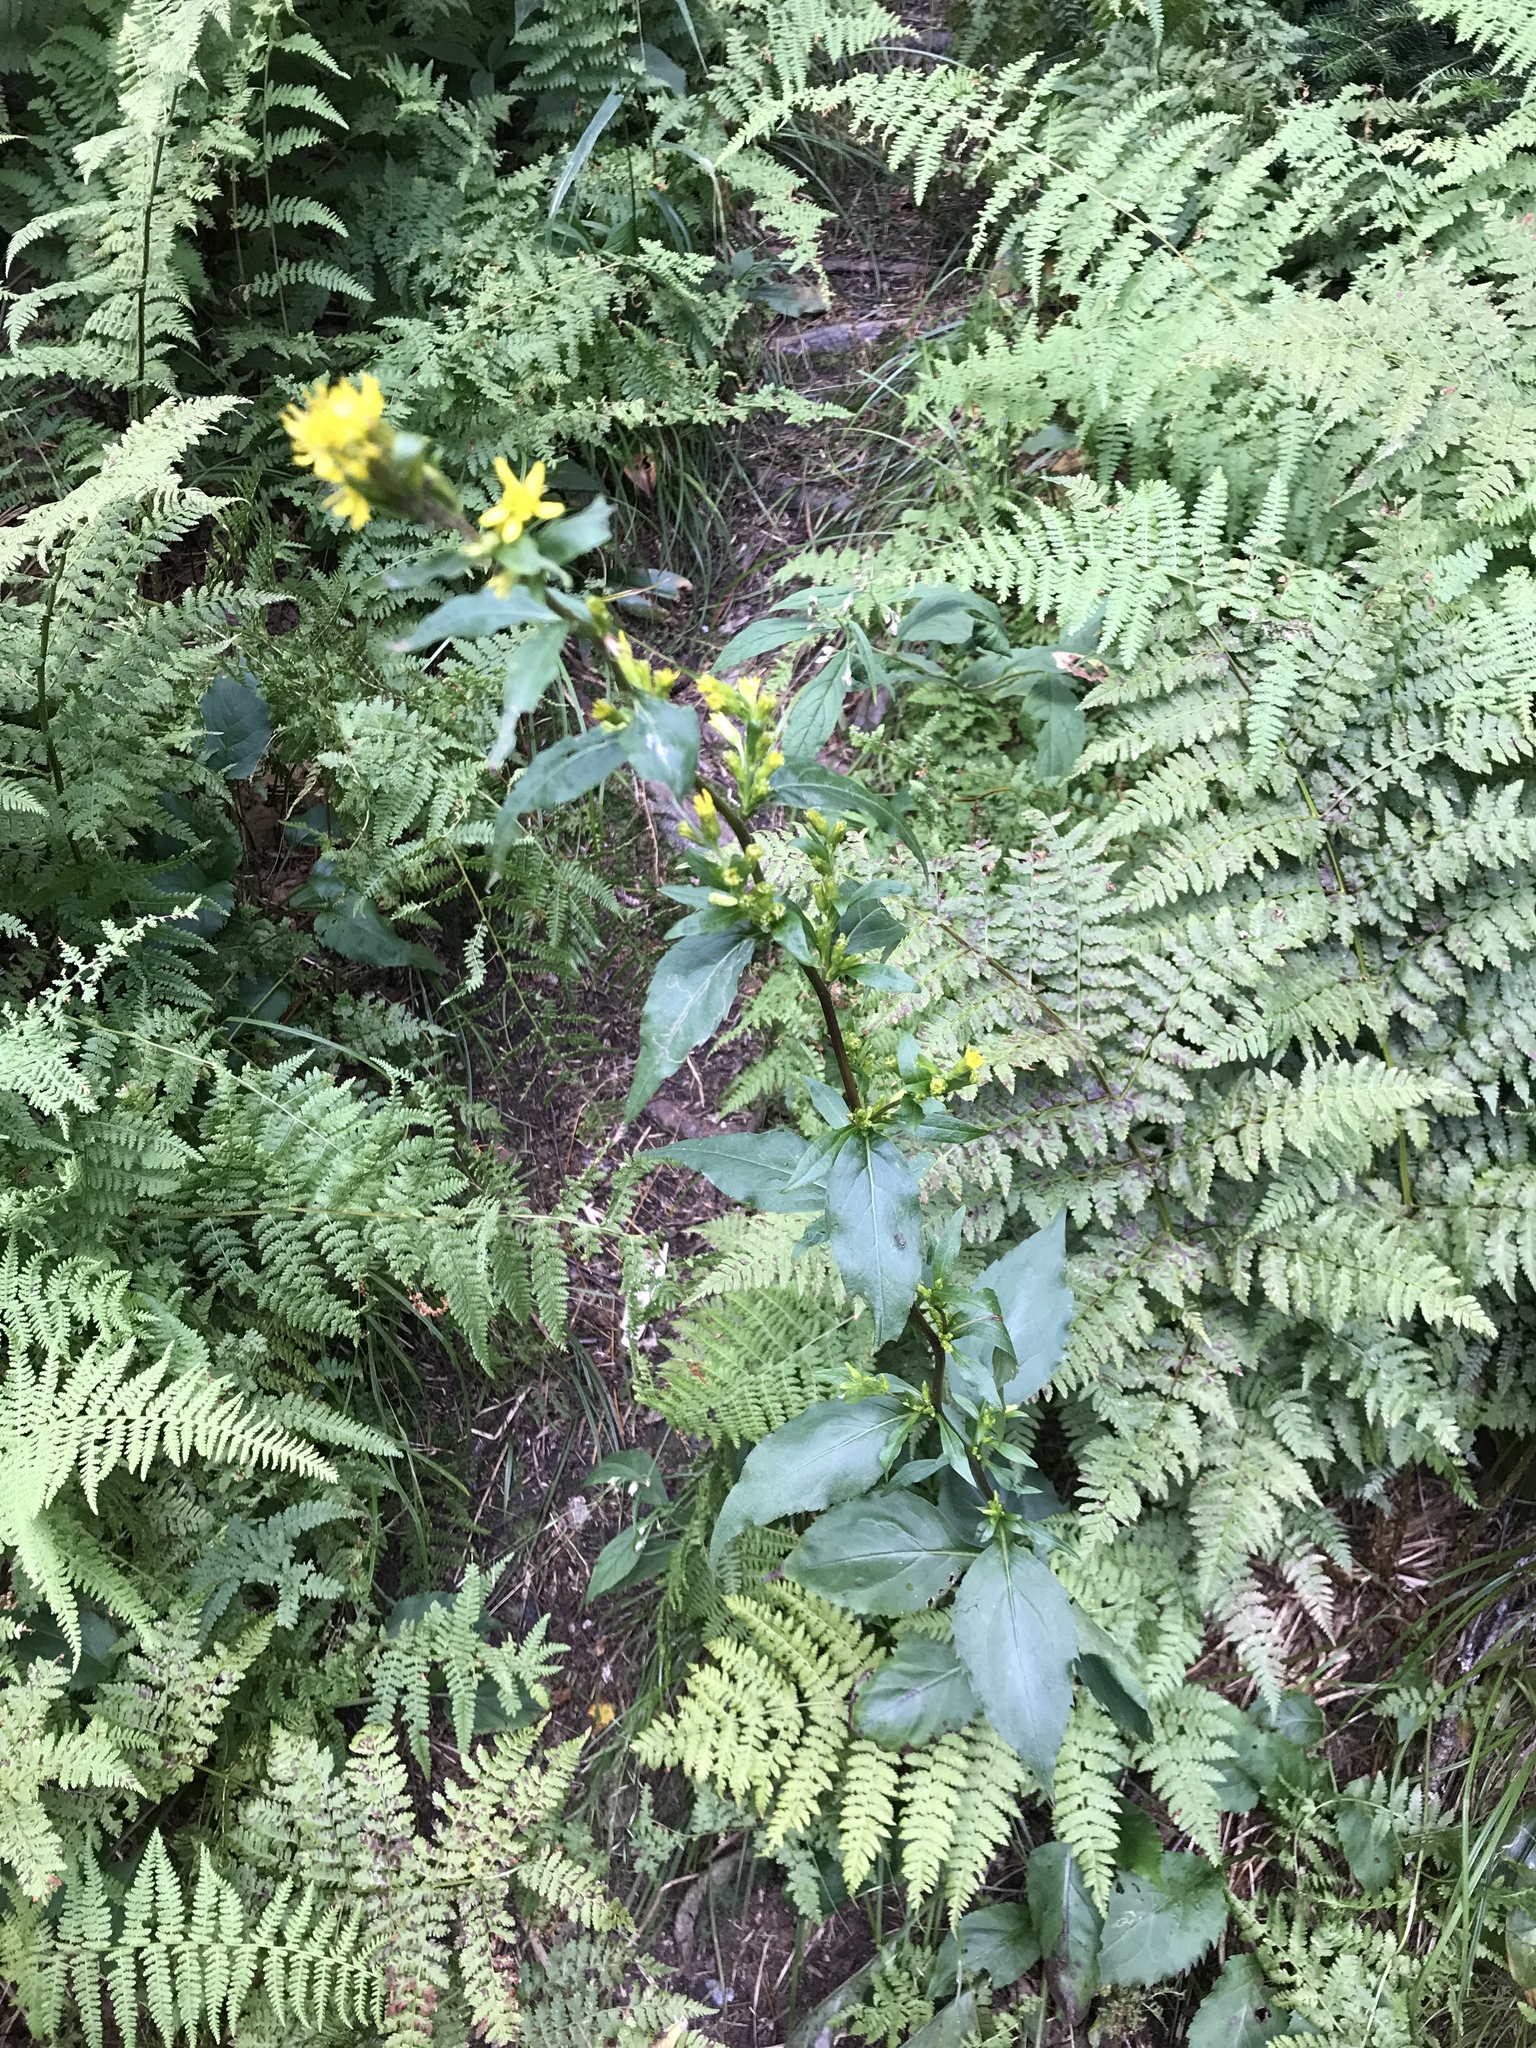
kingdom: Plantae
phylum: Tracheophyta
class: Magnoliopsida
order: Asterales
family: Asteraceae
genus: Solidago
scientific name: Solidago flexicaulis
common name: Zig-zag goldenrod
